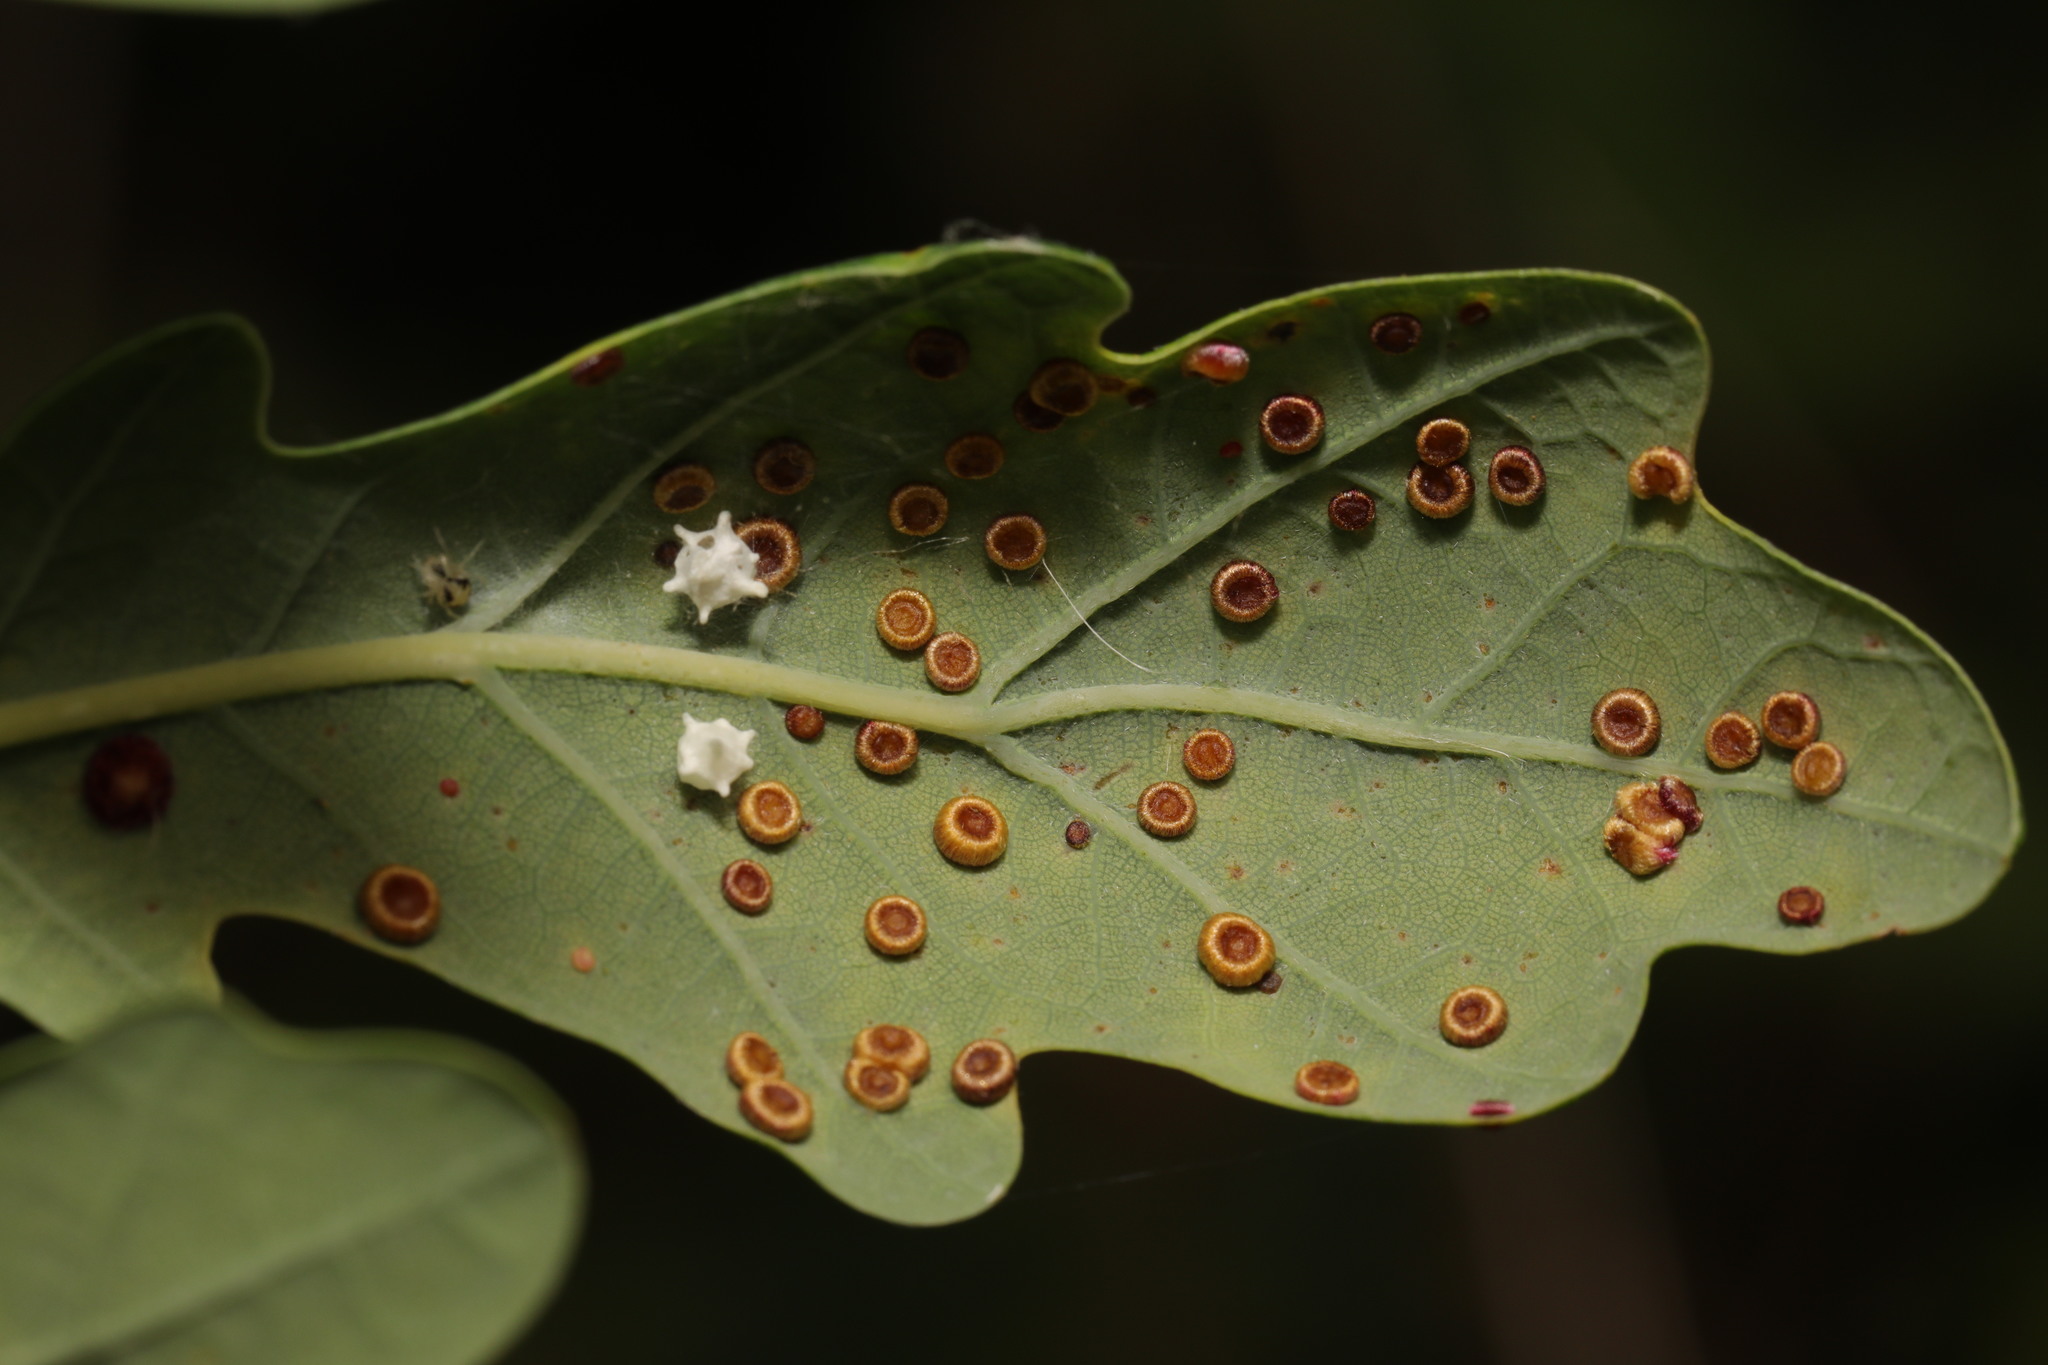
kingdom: Animalia
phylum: Arthropoda
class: Insecta
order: Hymenoptera
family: Cynipidae
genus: Neuroterus
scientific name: Neuroterus numismalis
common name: Silk-button spangle gall
